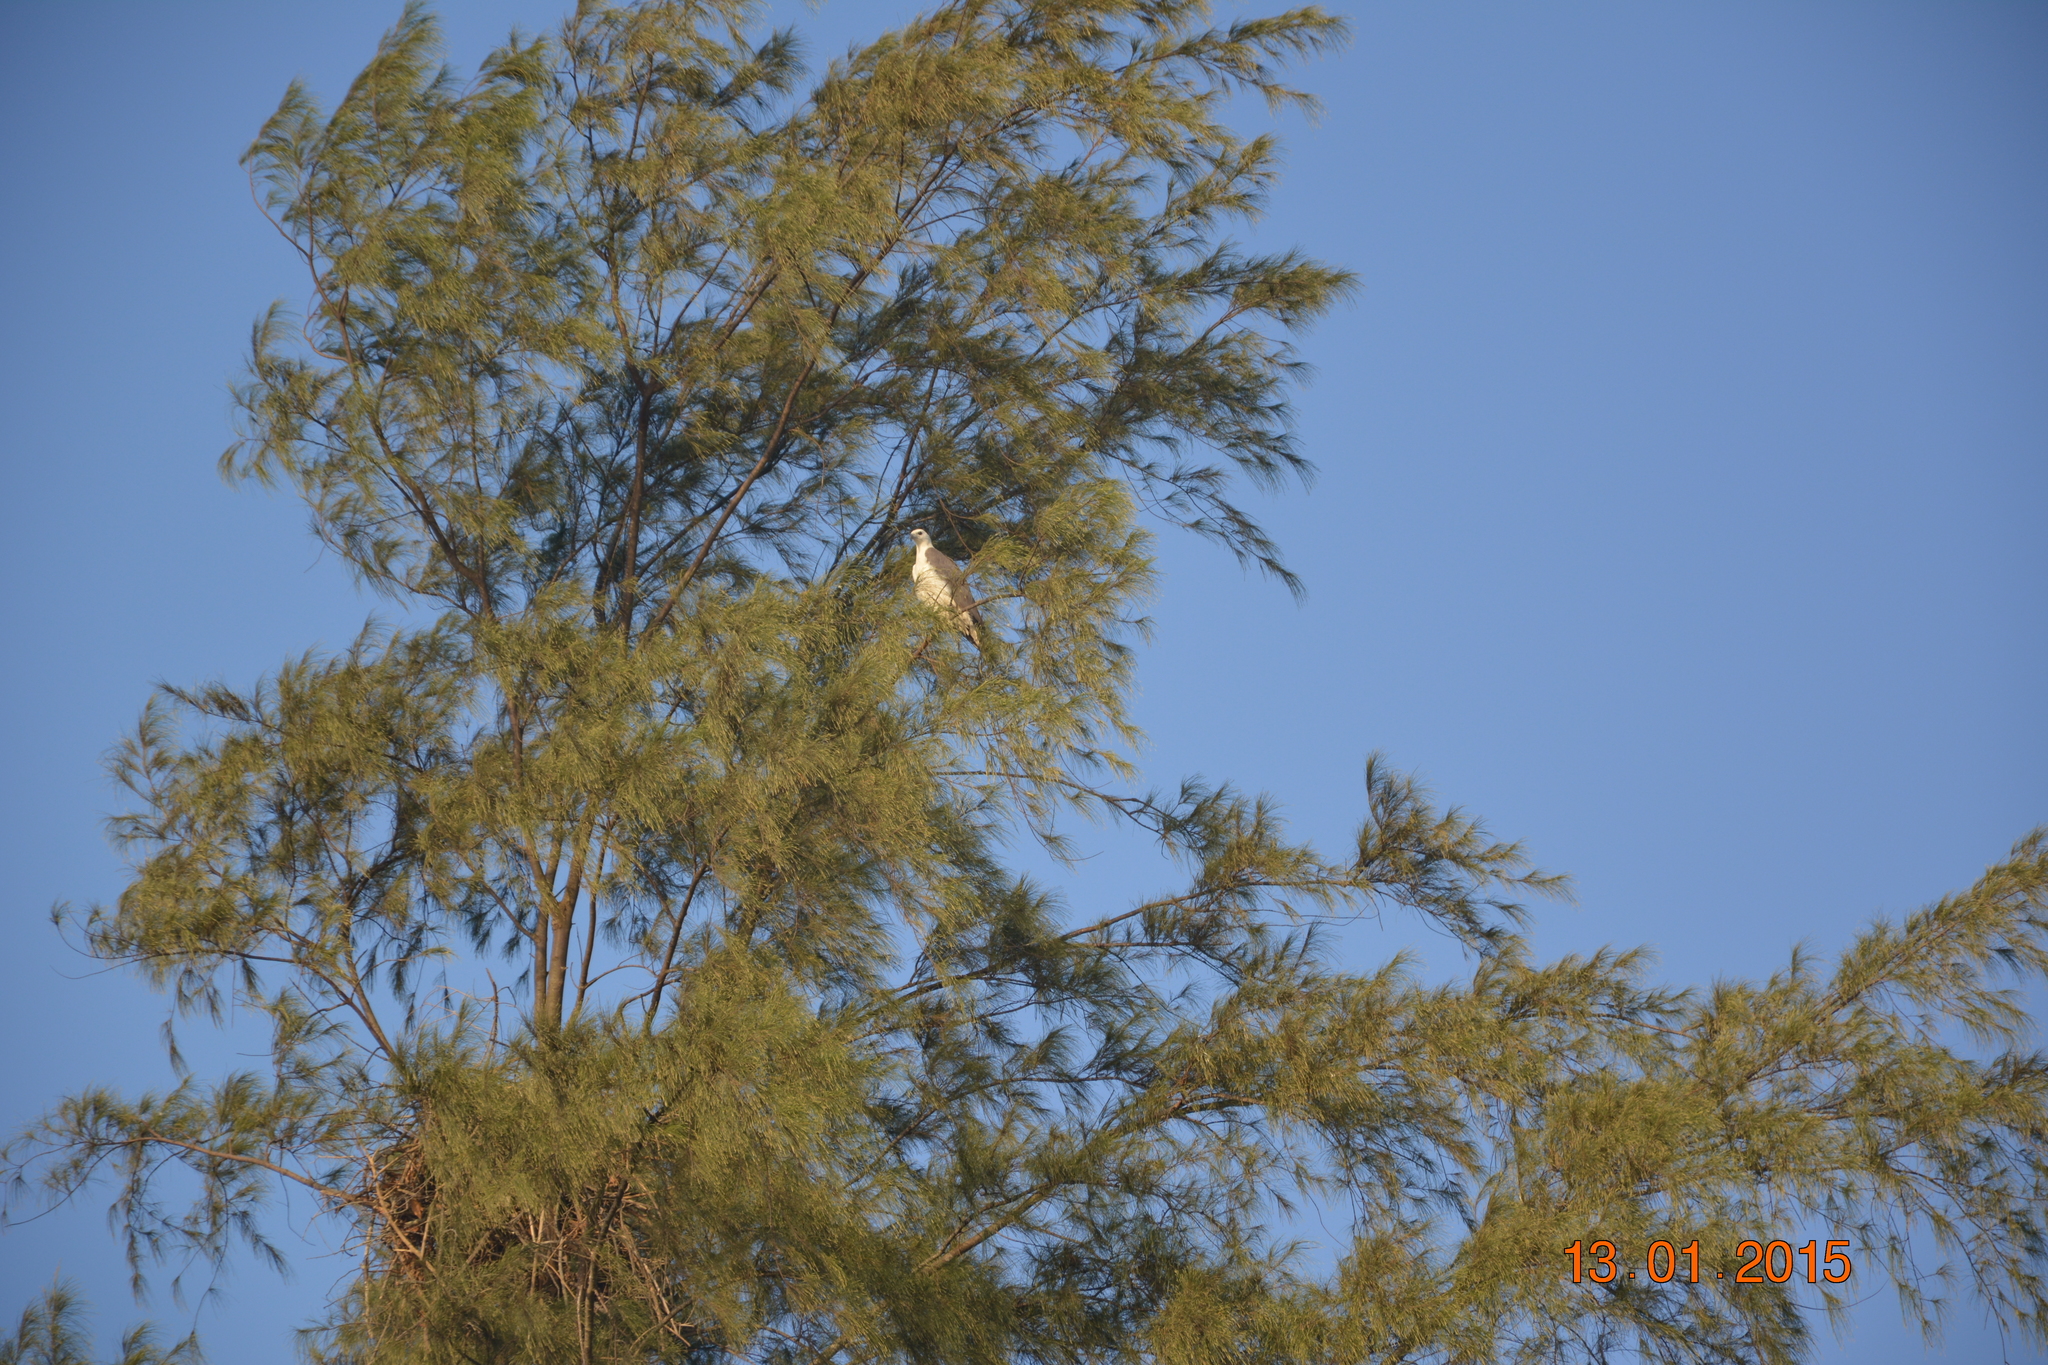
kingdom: Animalia
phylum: Chordata
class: Aves
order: Accipitriformes
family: Accipitridae
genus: Haliaeetus
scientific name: Haliaeetus leucogaster
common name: White-bellied sea eagle
